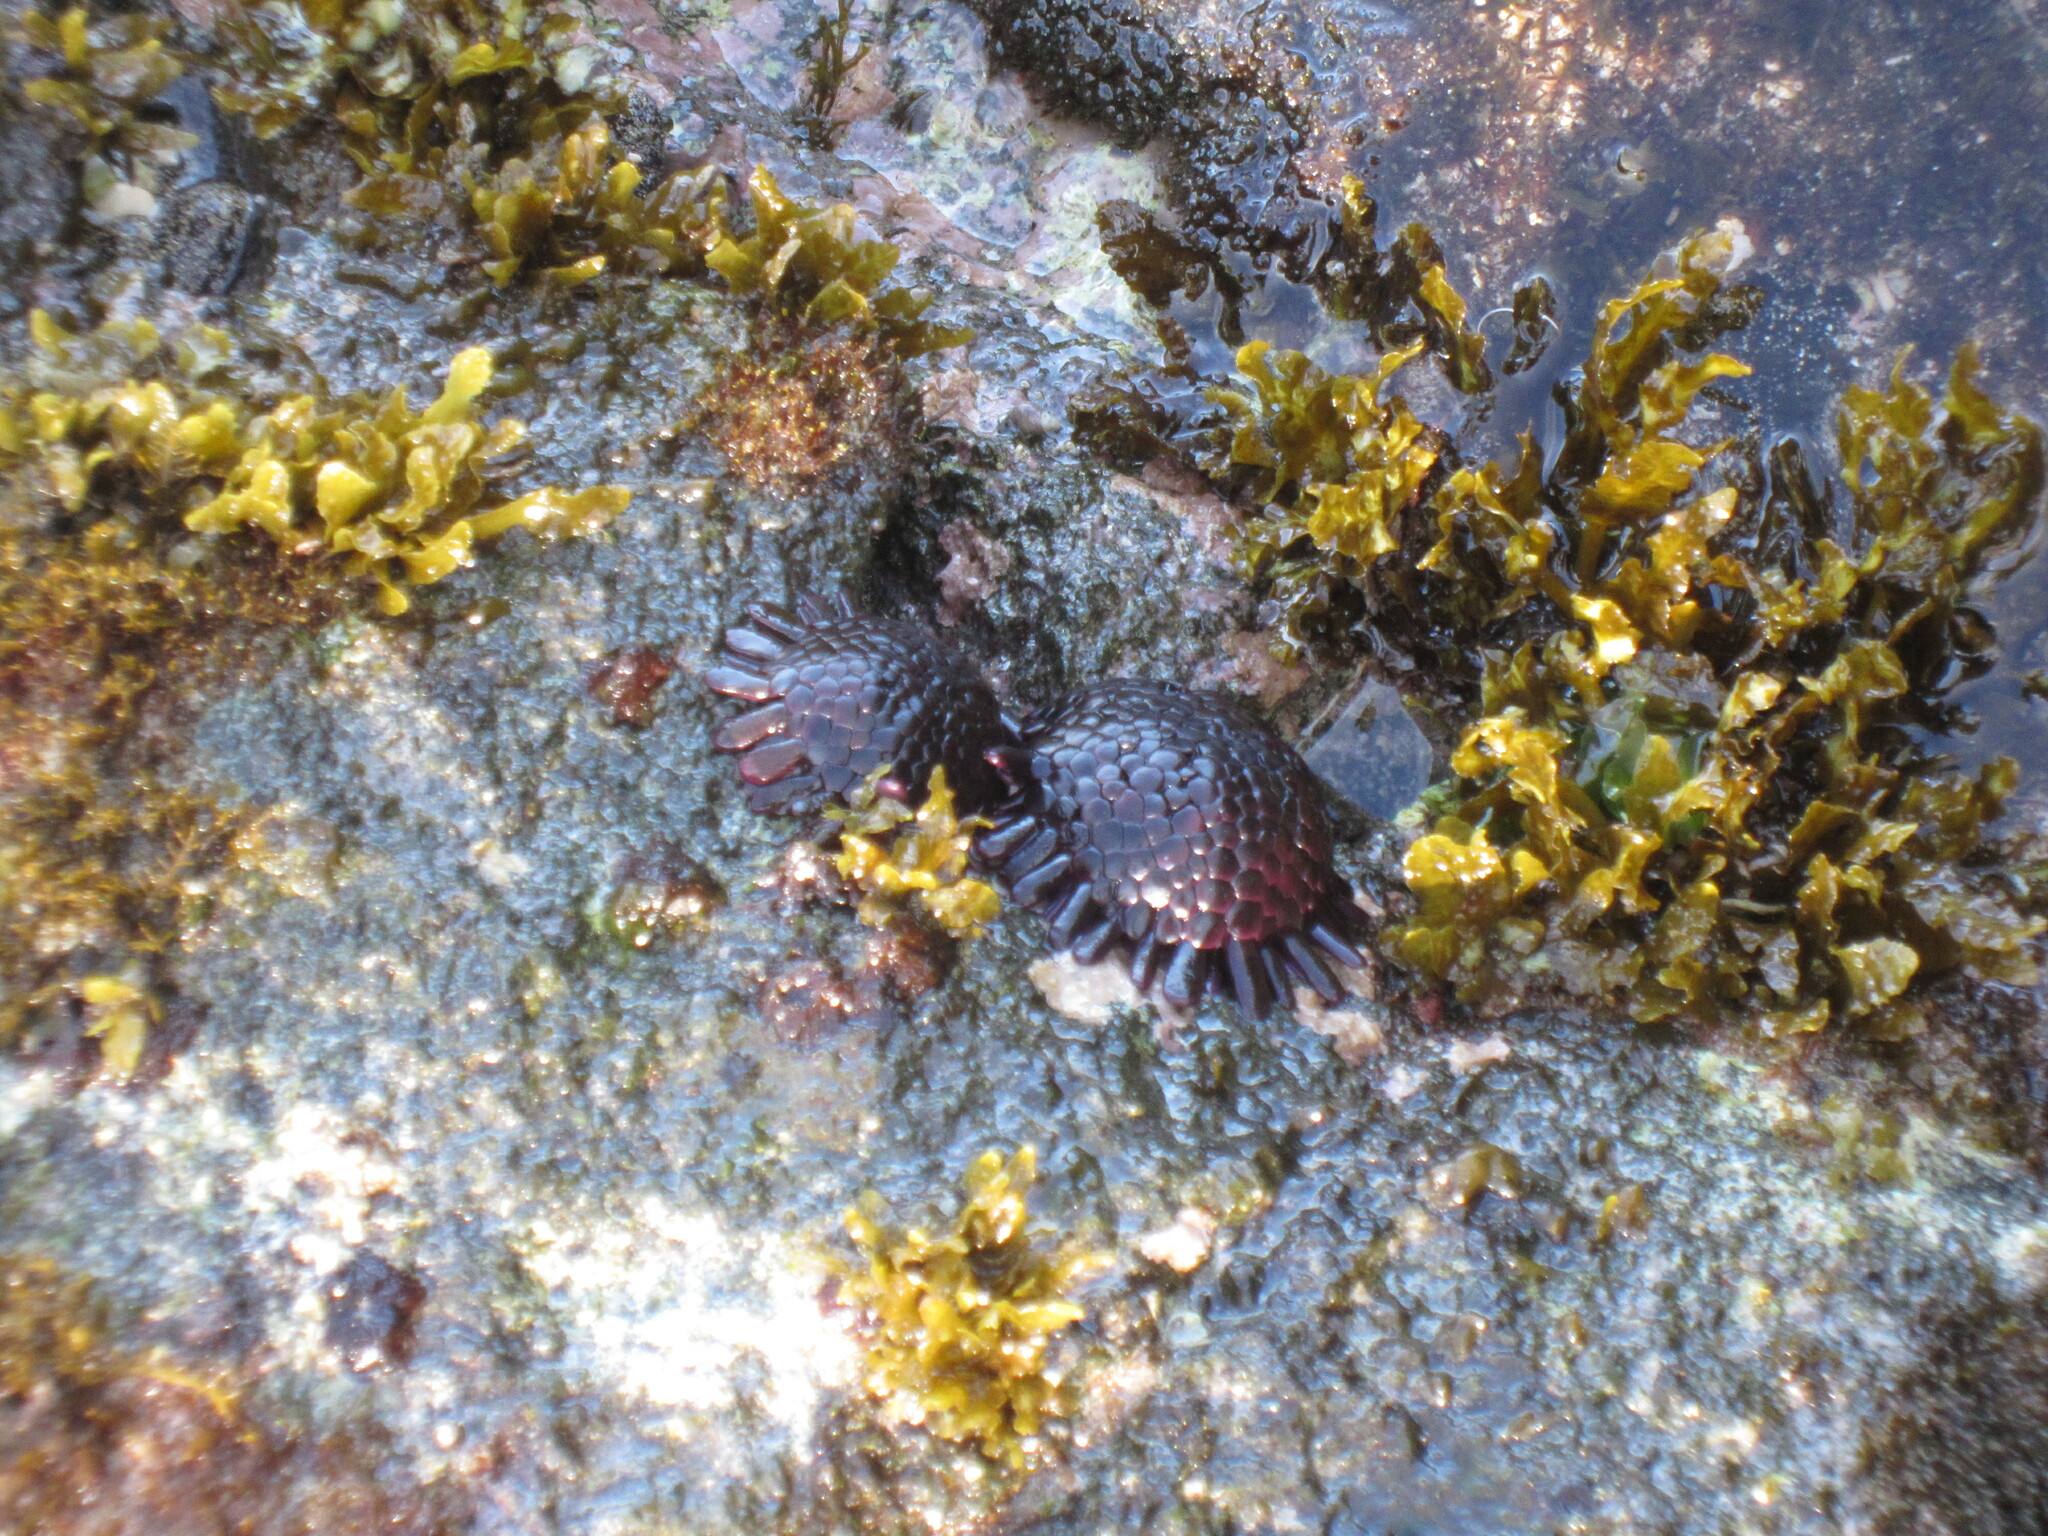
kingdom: Animalia
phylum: Echinodermata
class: Echinoidea
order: Camarodonta
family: Echinometridae
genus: Colobocentrotus
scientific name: Colobocentrotus atratus
